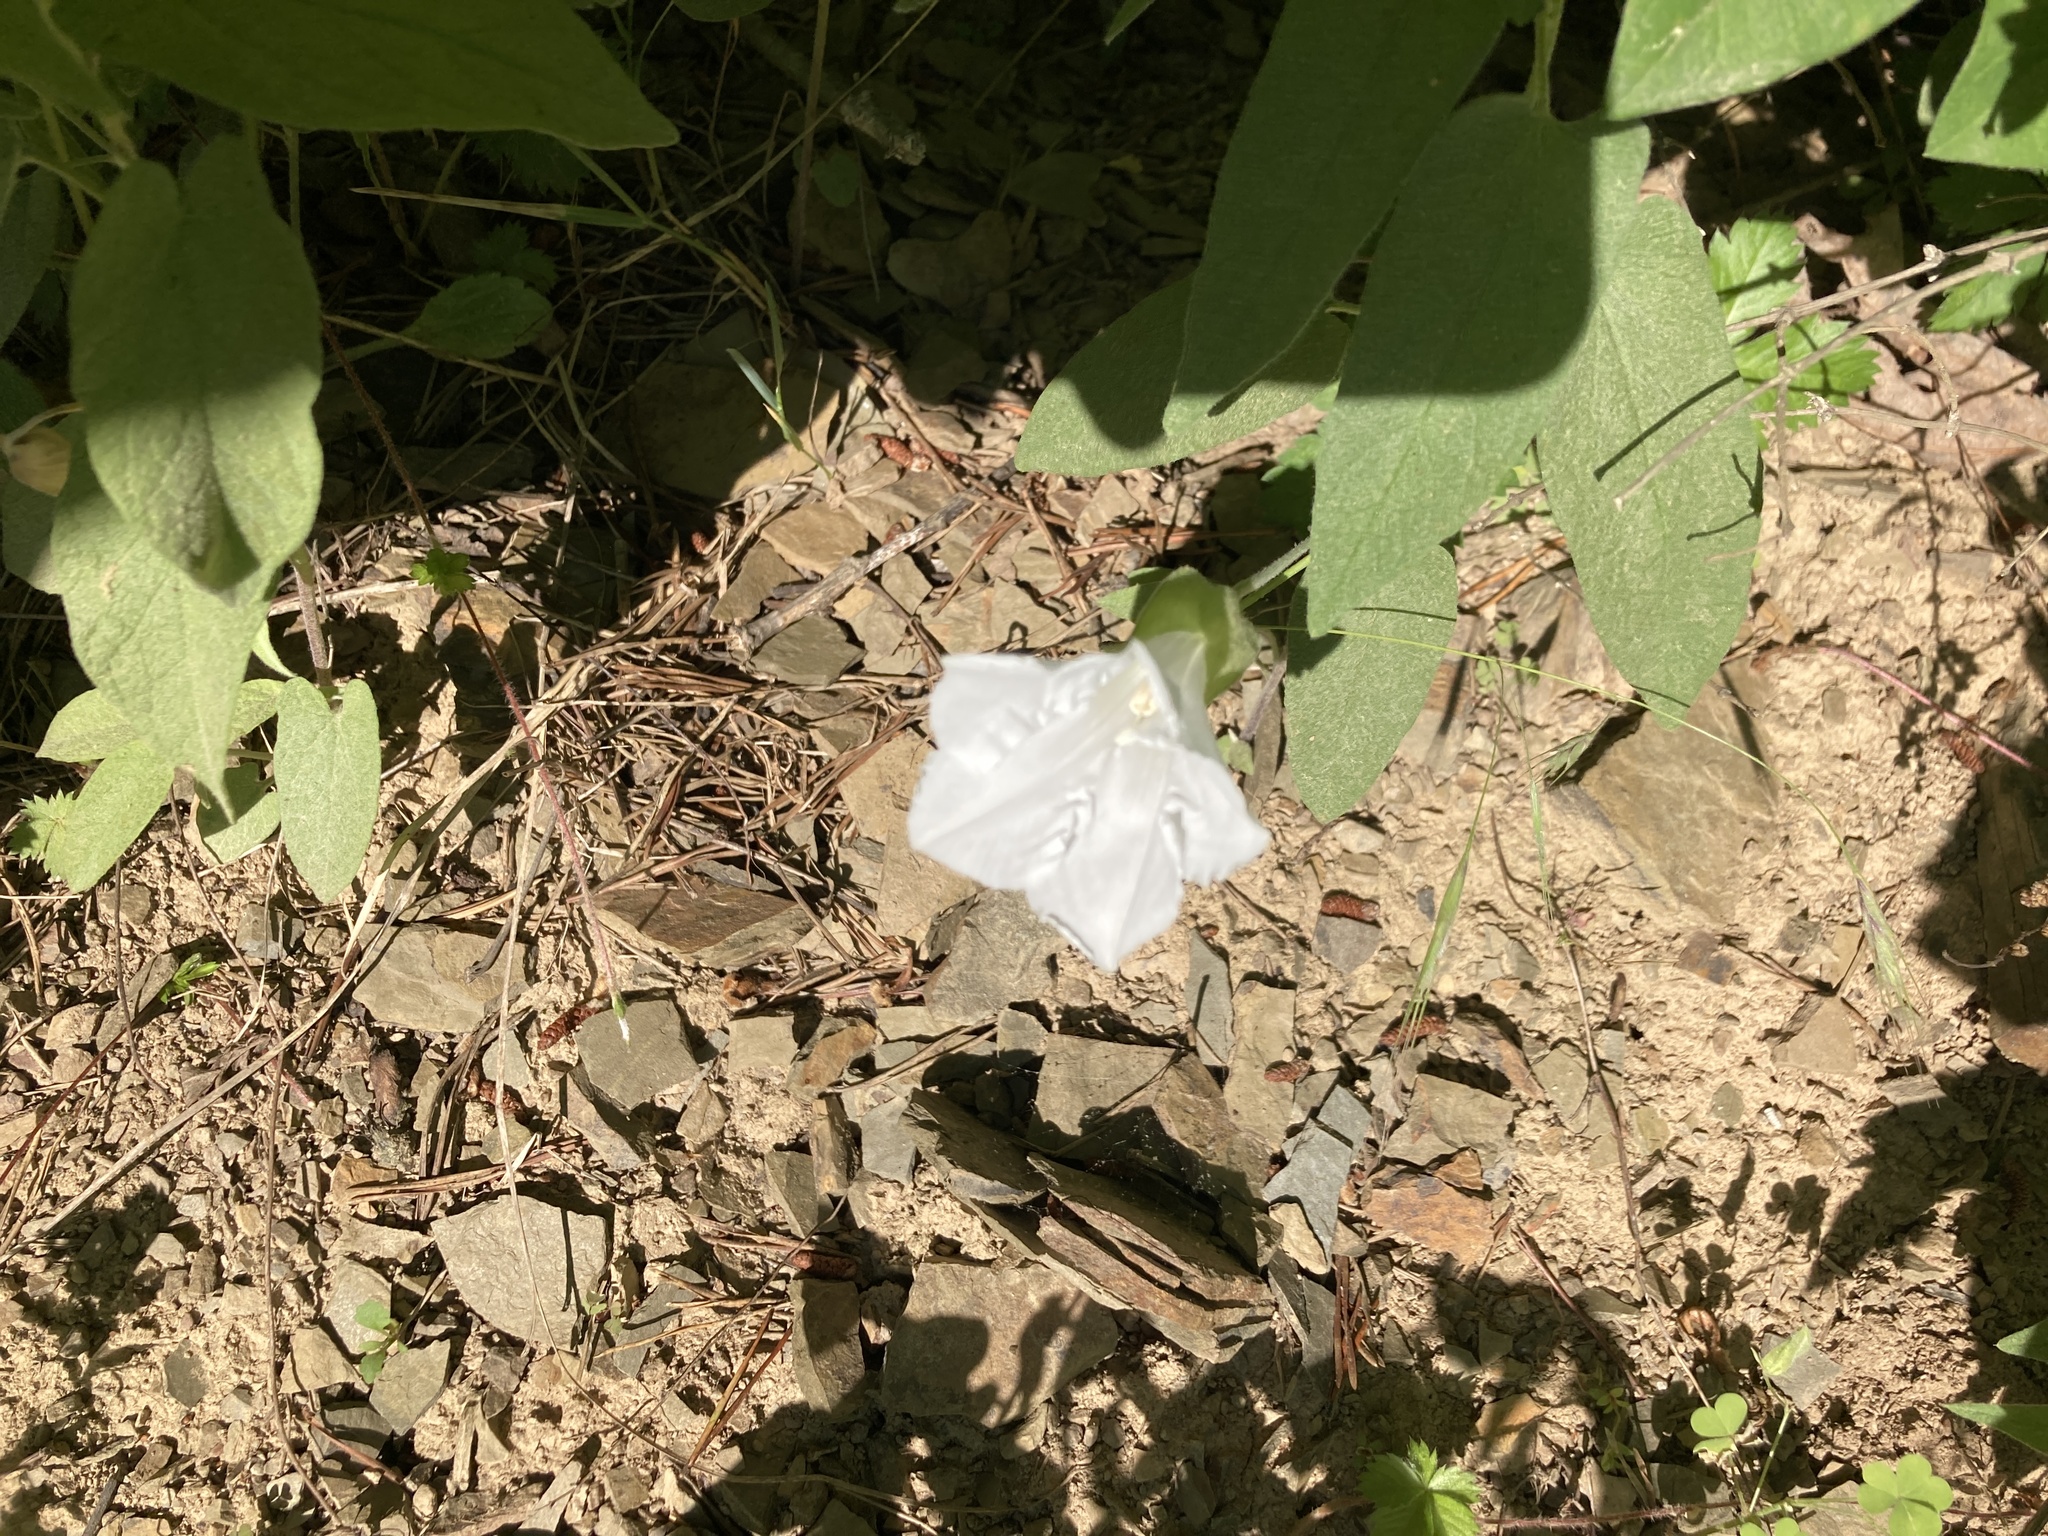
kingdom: Plantae
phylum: Tracheophyta
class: Magnoliopsida
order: Solanales
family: Convolvulaceae
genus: Calystegia
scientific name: Calystegia spithamaea
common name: Dwarf bindweed
